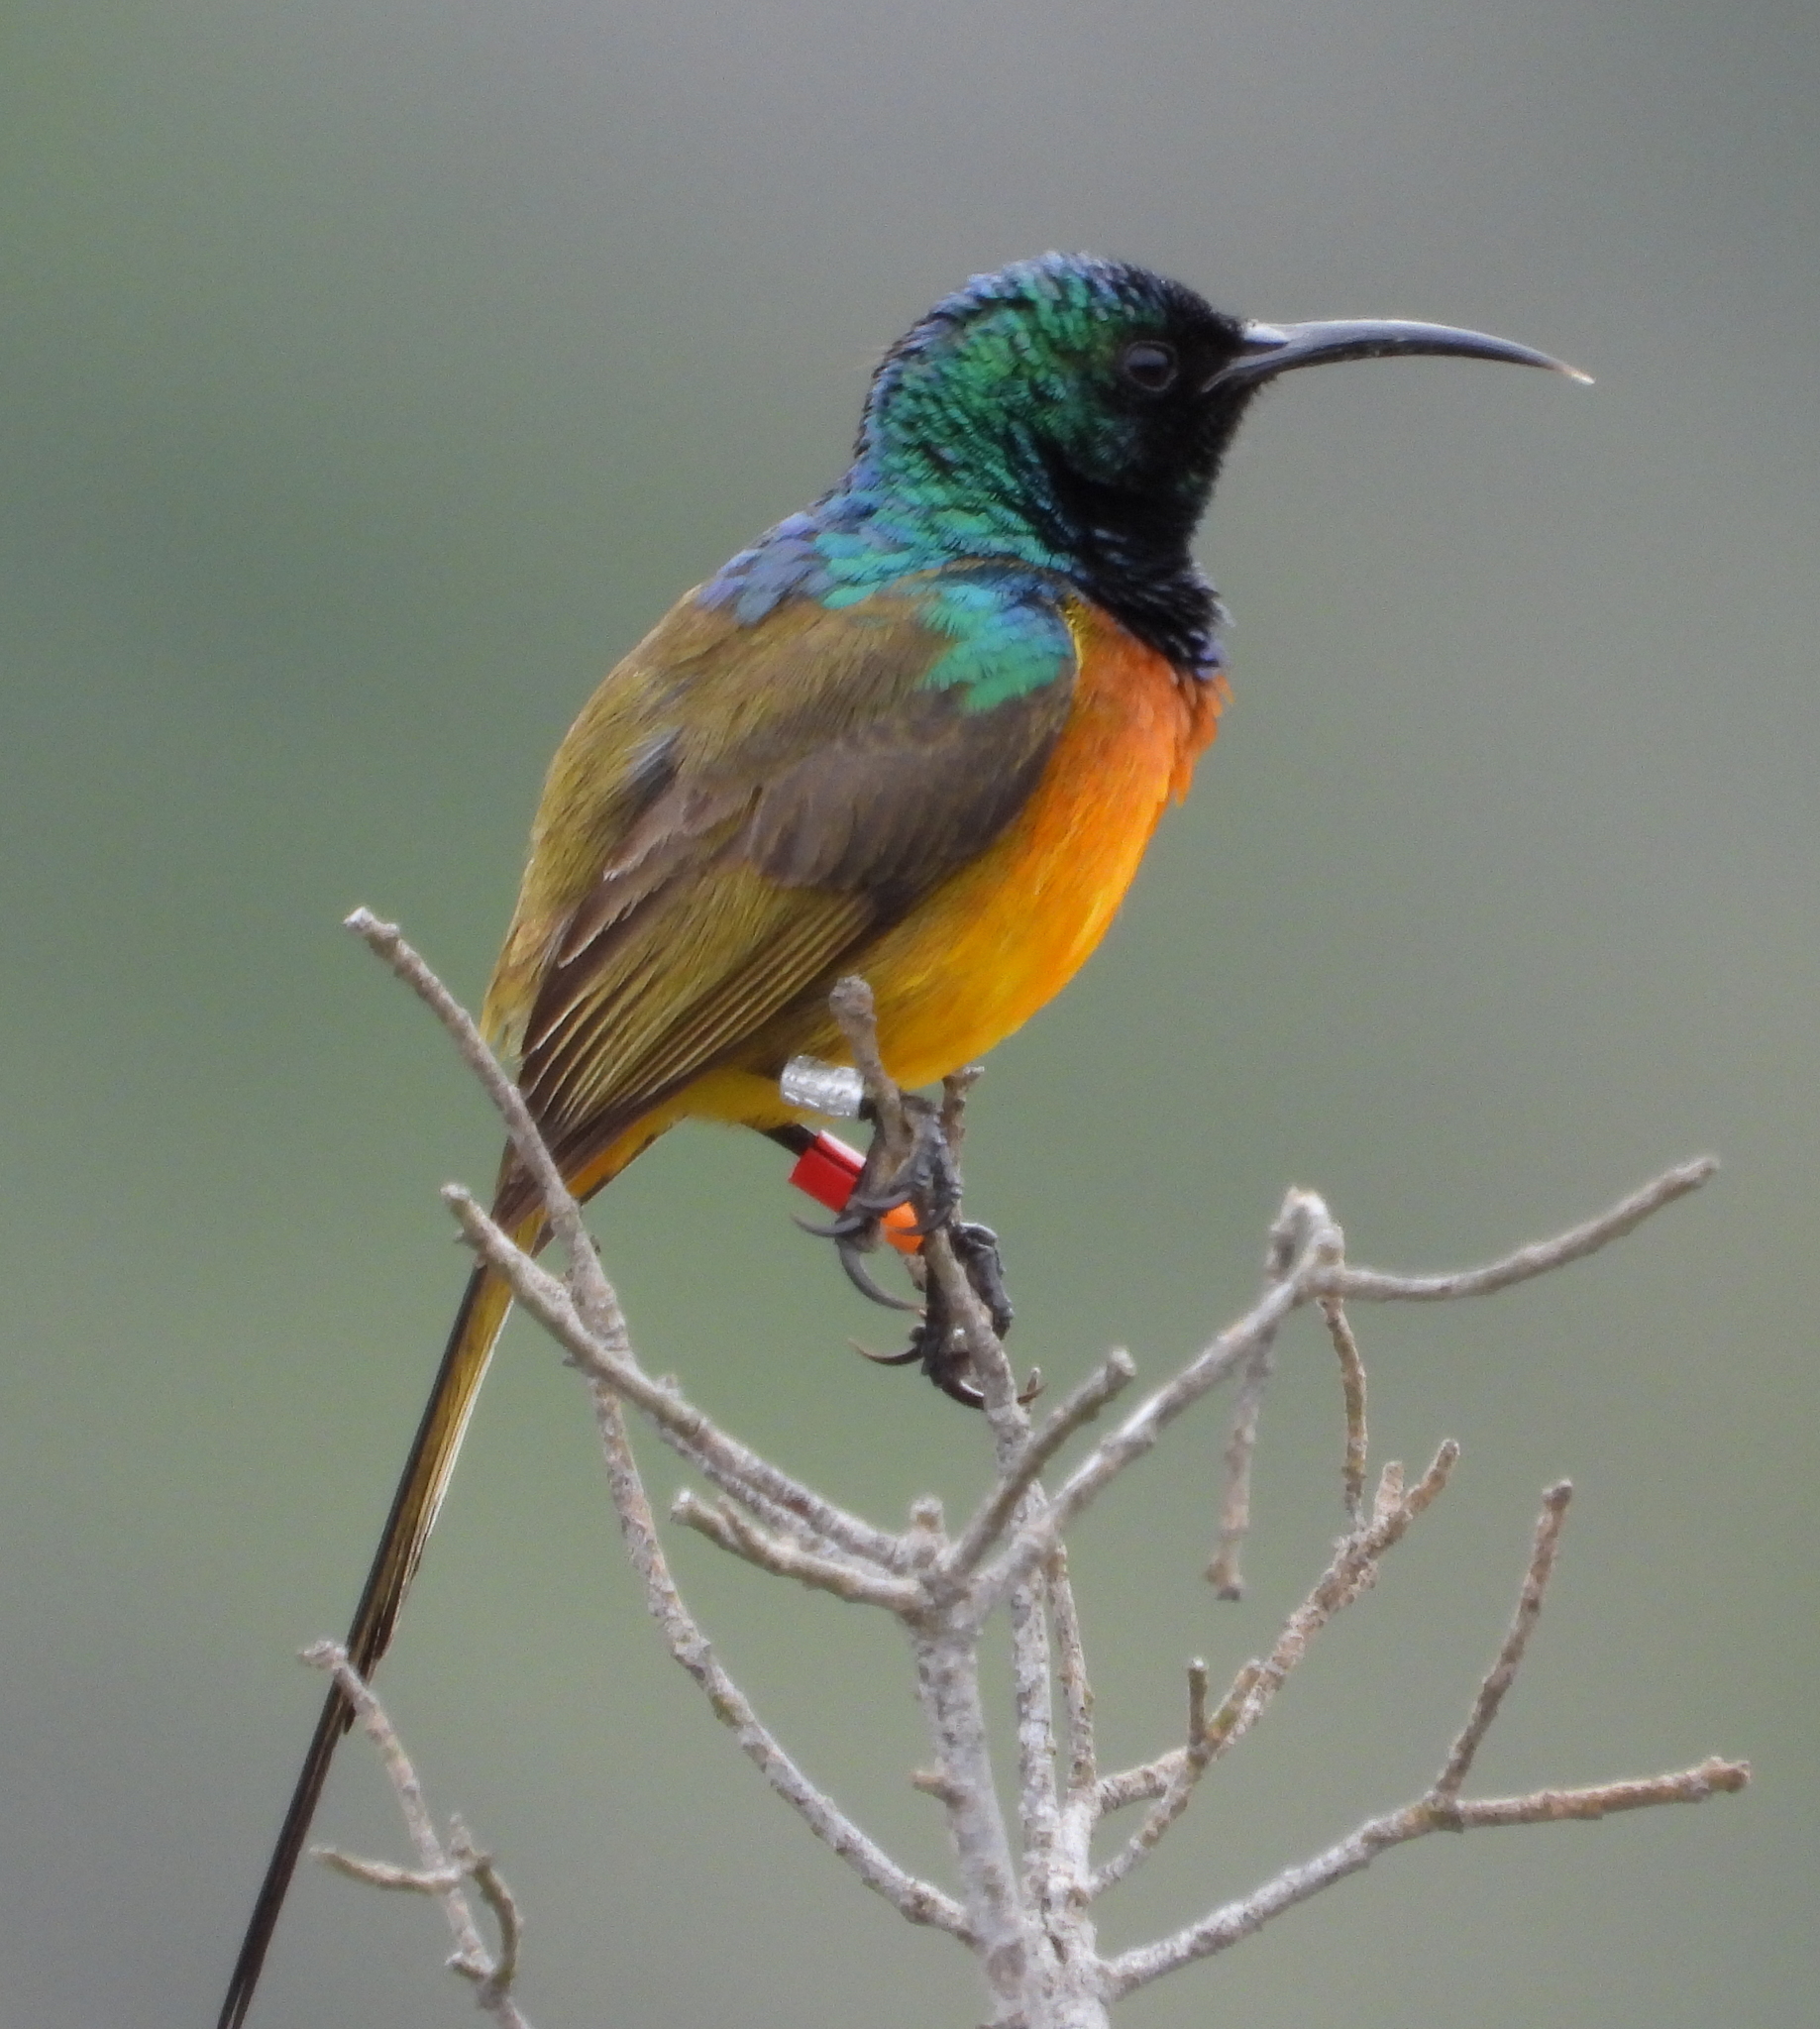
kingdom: Animalia
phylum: Chordata
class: Aves
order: Passeriformes
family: Nectariniidae
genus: Anthobaphes
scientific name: Anthobaphes violacea
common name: Orange-breasted sunbird
